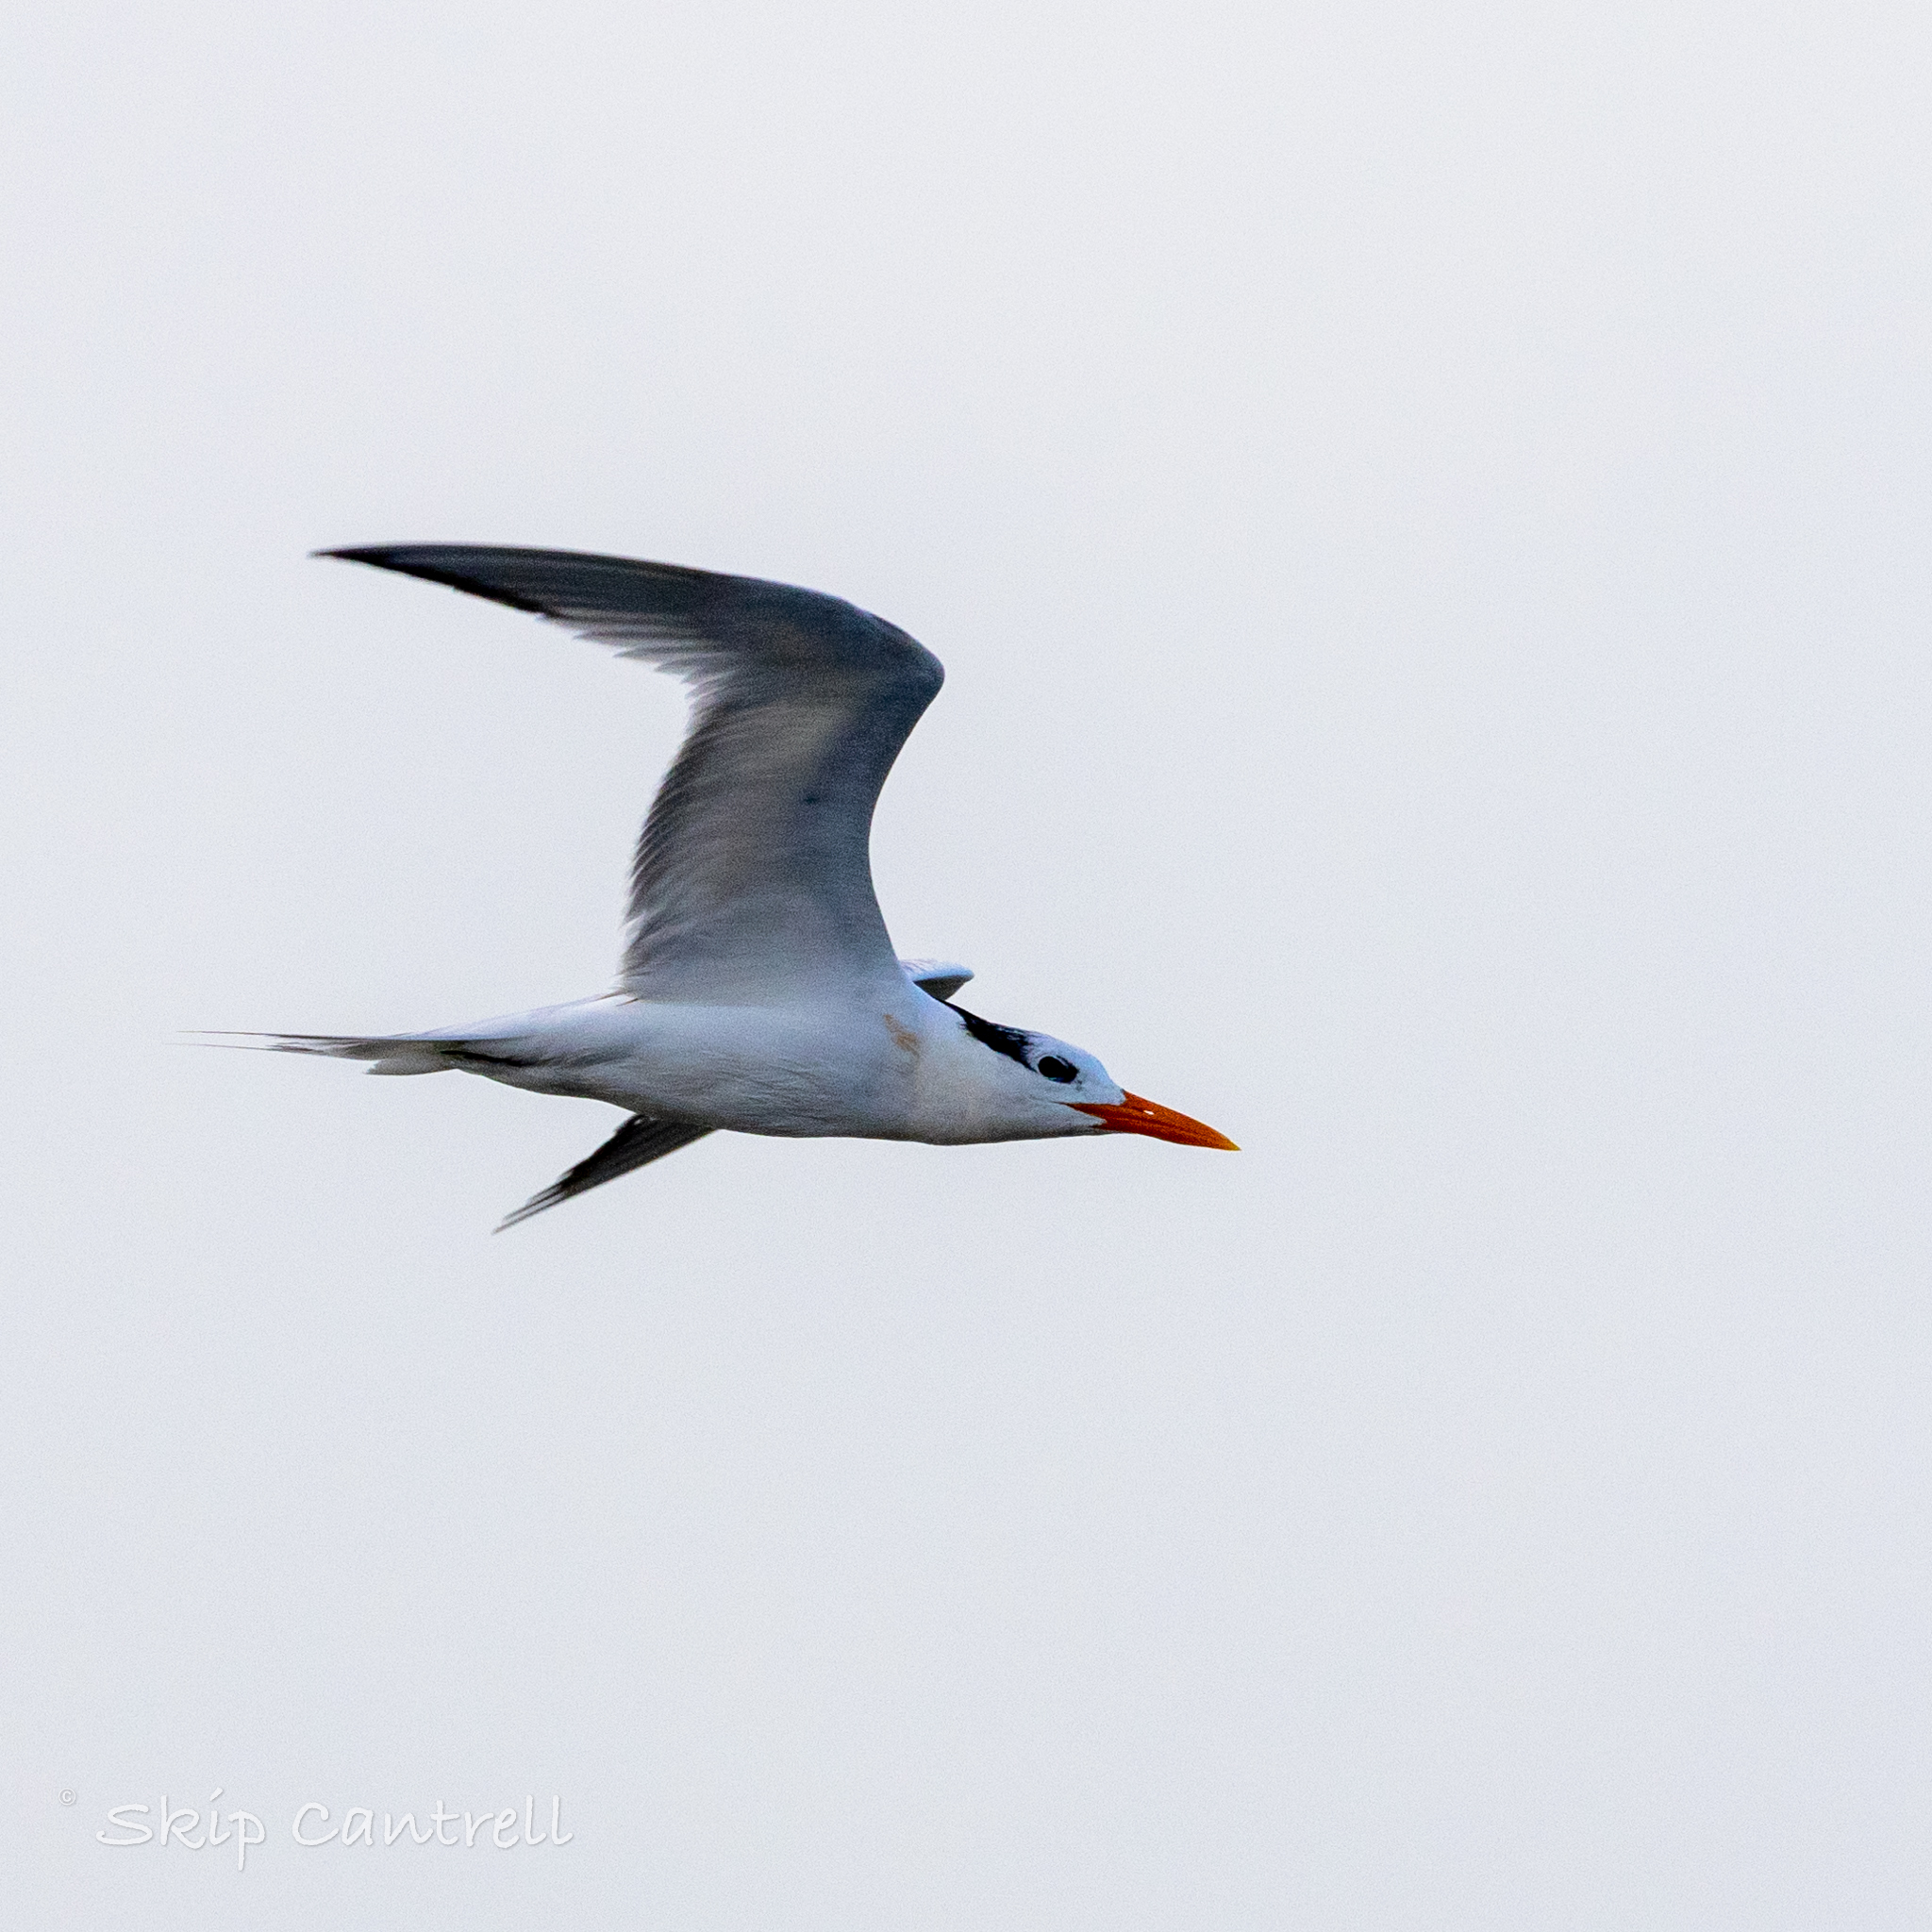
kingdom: Animalia
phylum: Chordata
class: Aves
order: Charadriiformes
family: Laridae
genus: Thalasseus
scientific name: Thalasseus maximus
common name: Royal tern
